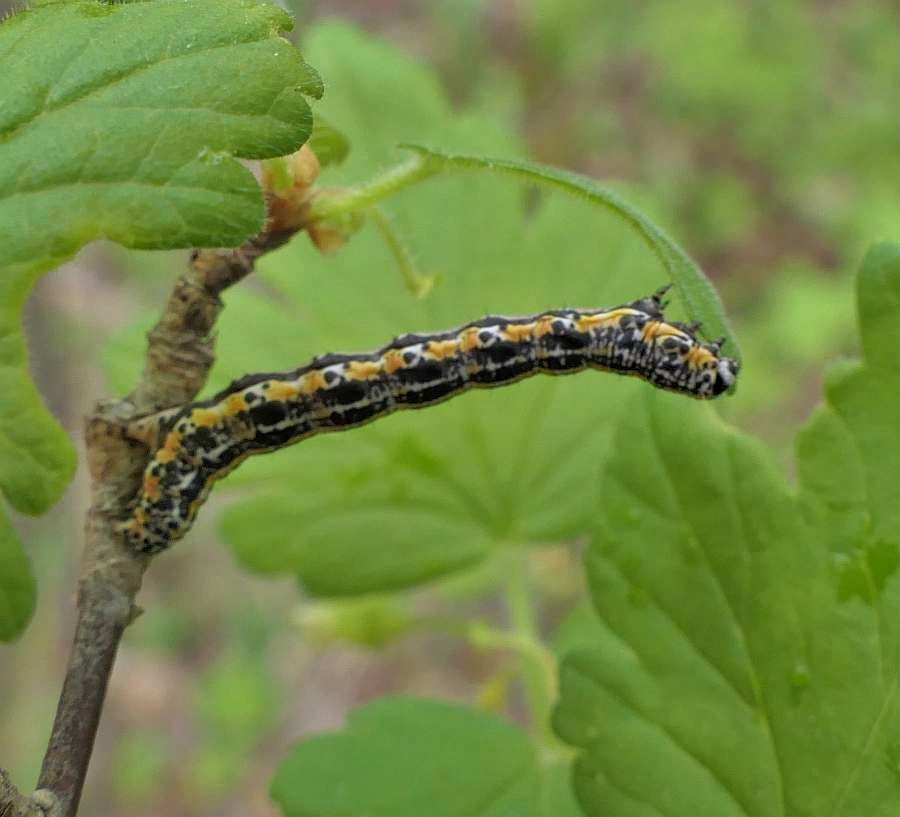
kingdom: Animalia
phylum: Arthropoda
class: Insecta
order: Lepidoptera
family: Geometridae
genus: Macaria
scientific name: Macaria evagaria
